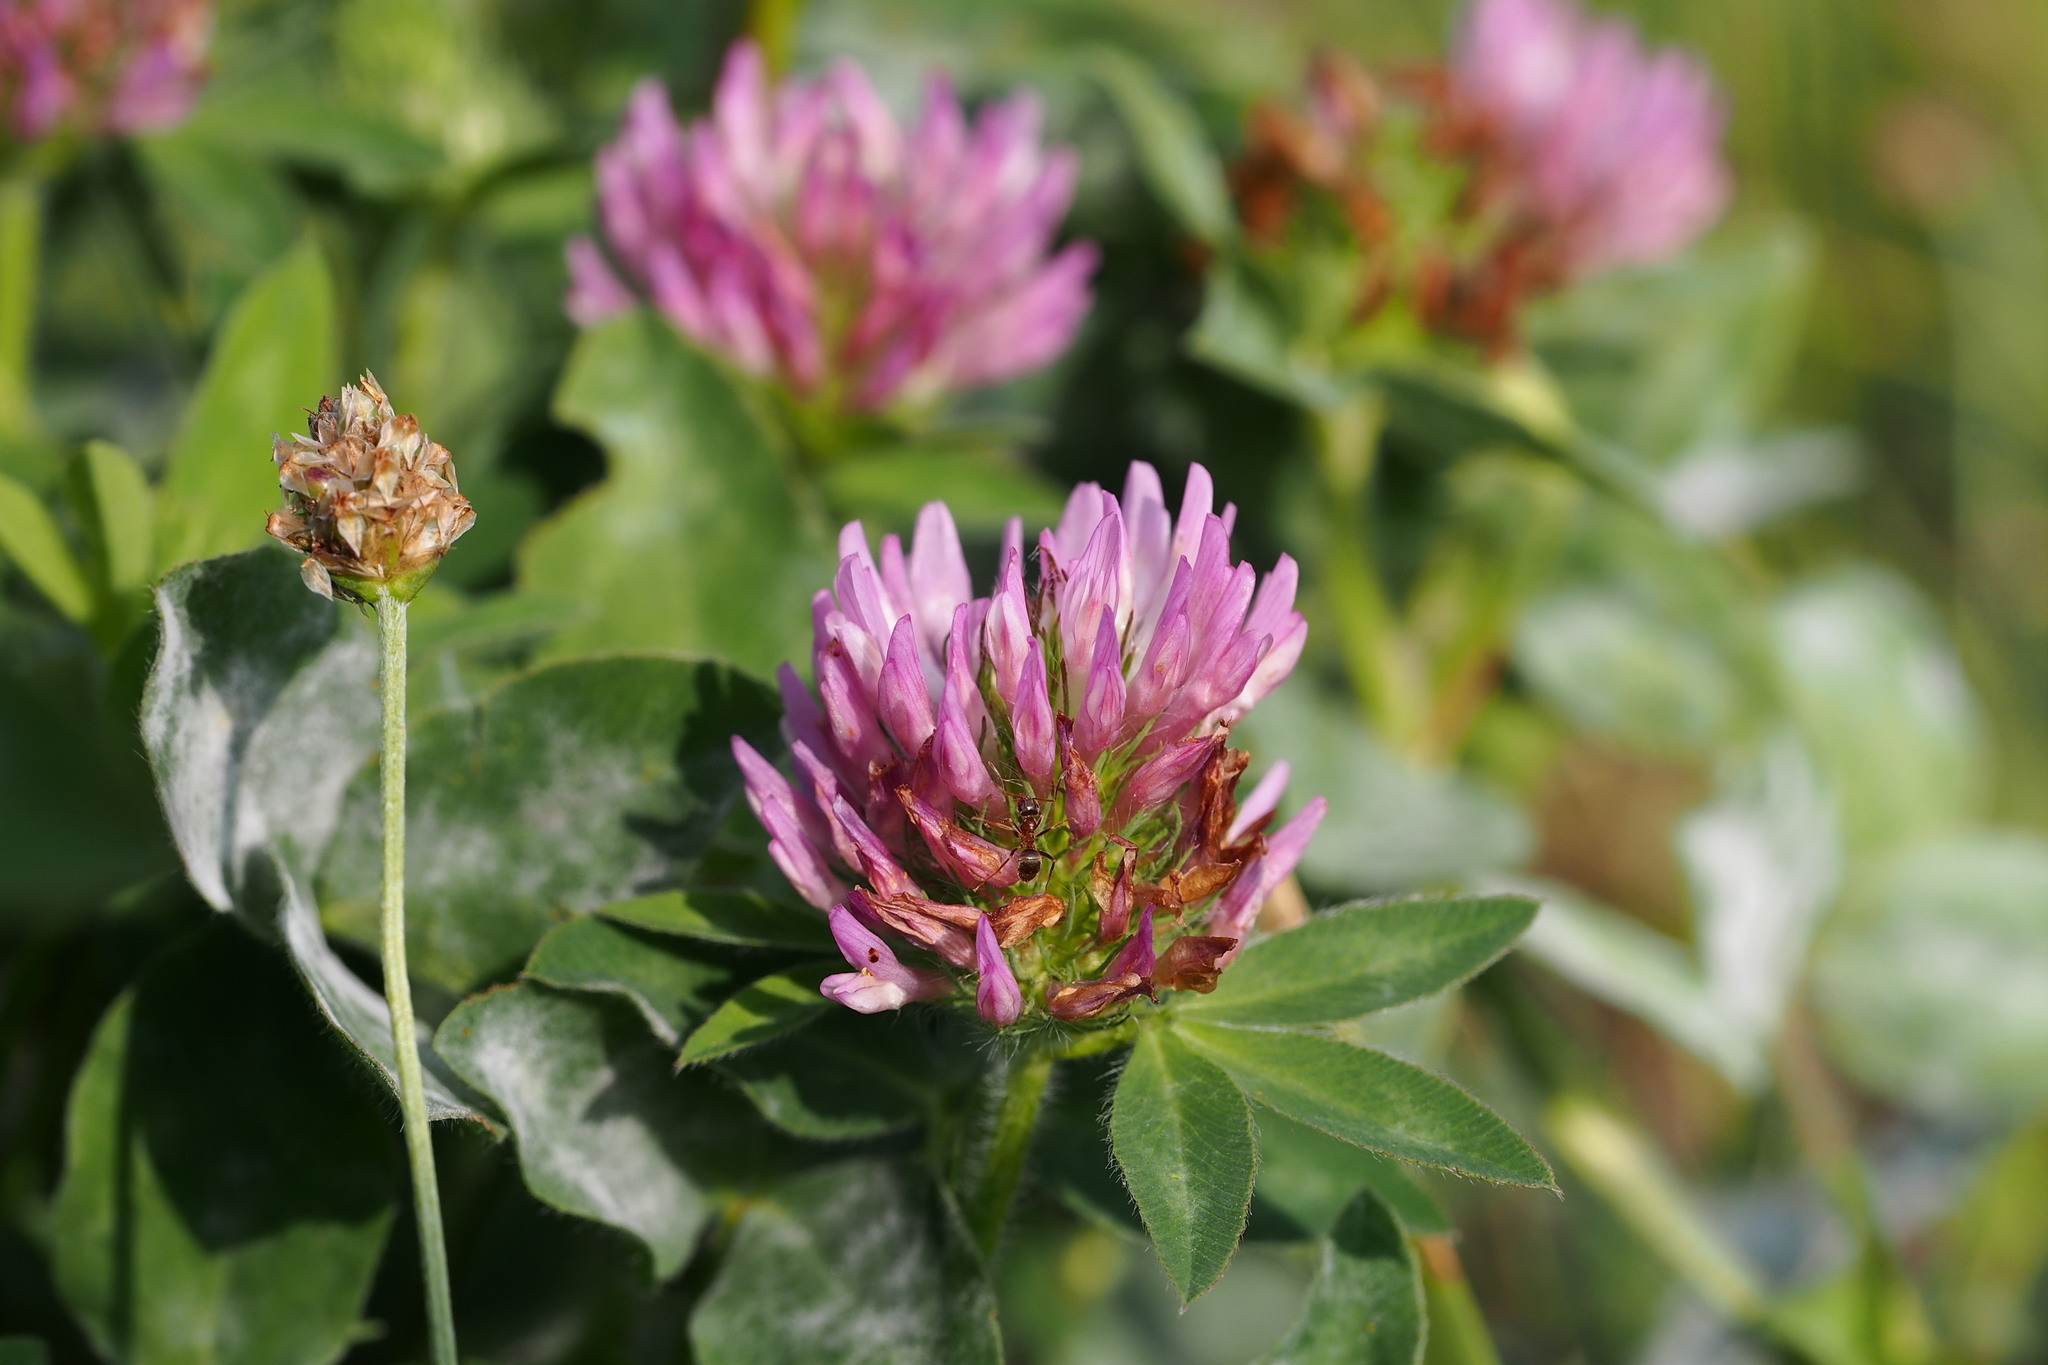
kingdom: Plantae
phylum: Tracheophyta
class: Magnoliopsida
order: Fabales
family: Fabaceae
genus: Trifolium
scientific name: Trifolium pratense
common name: Red clover
